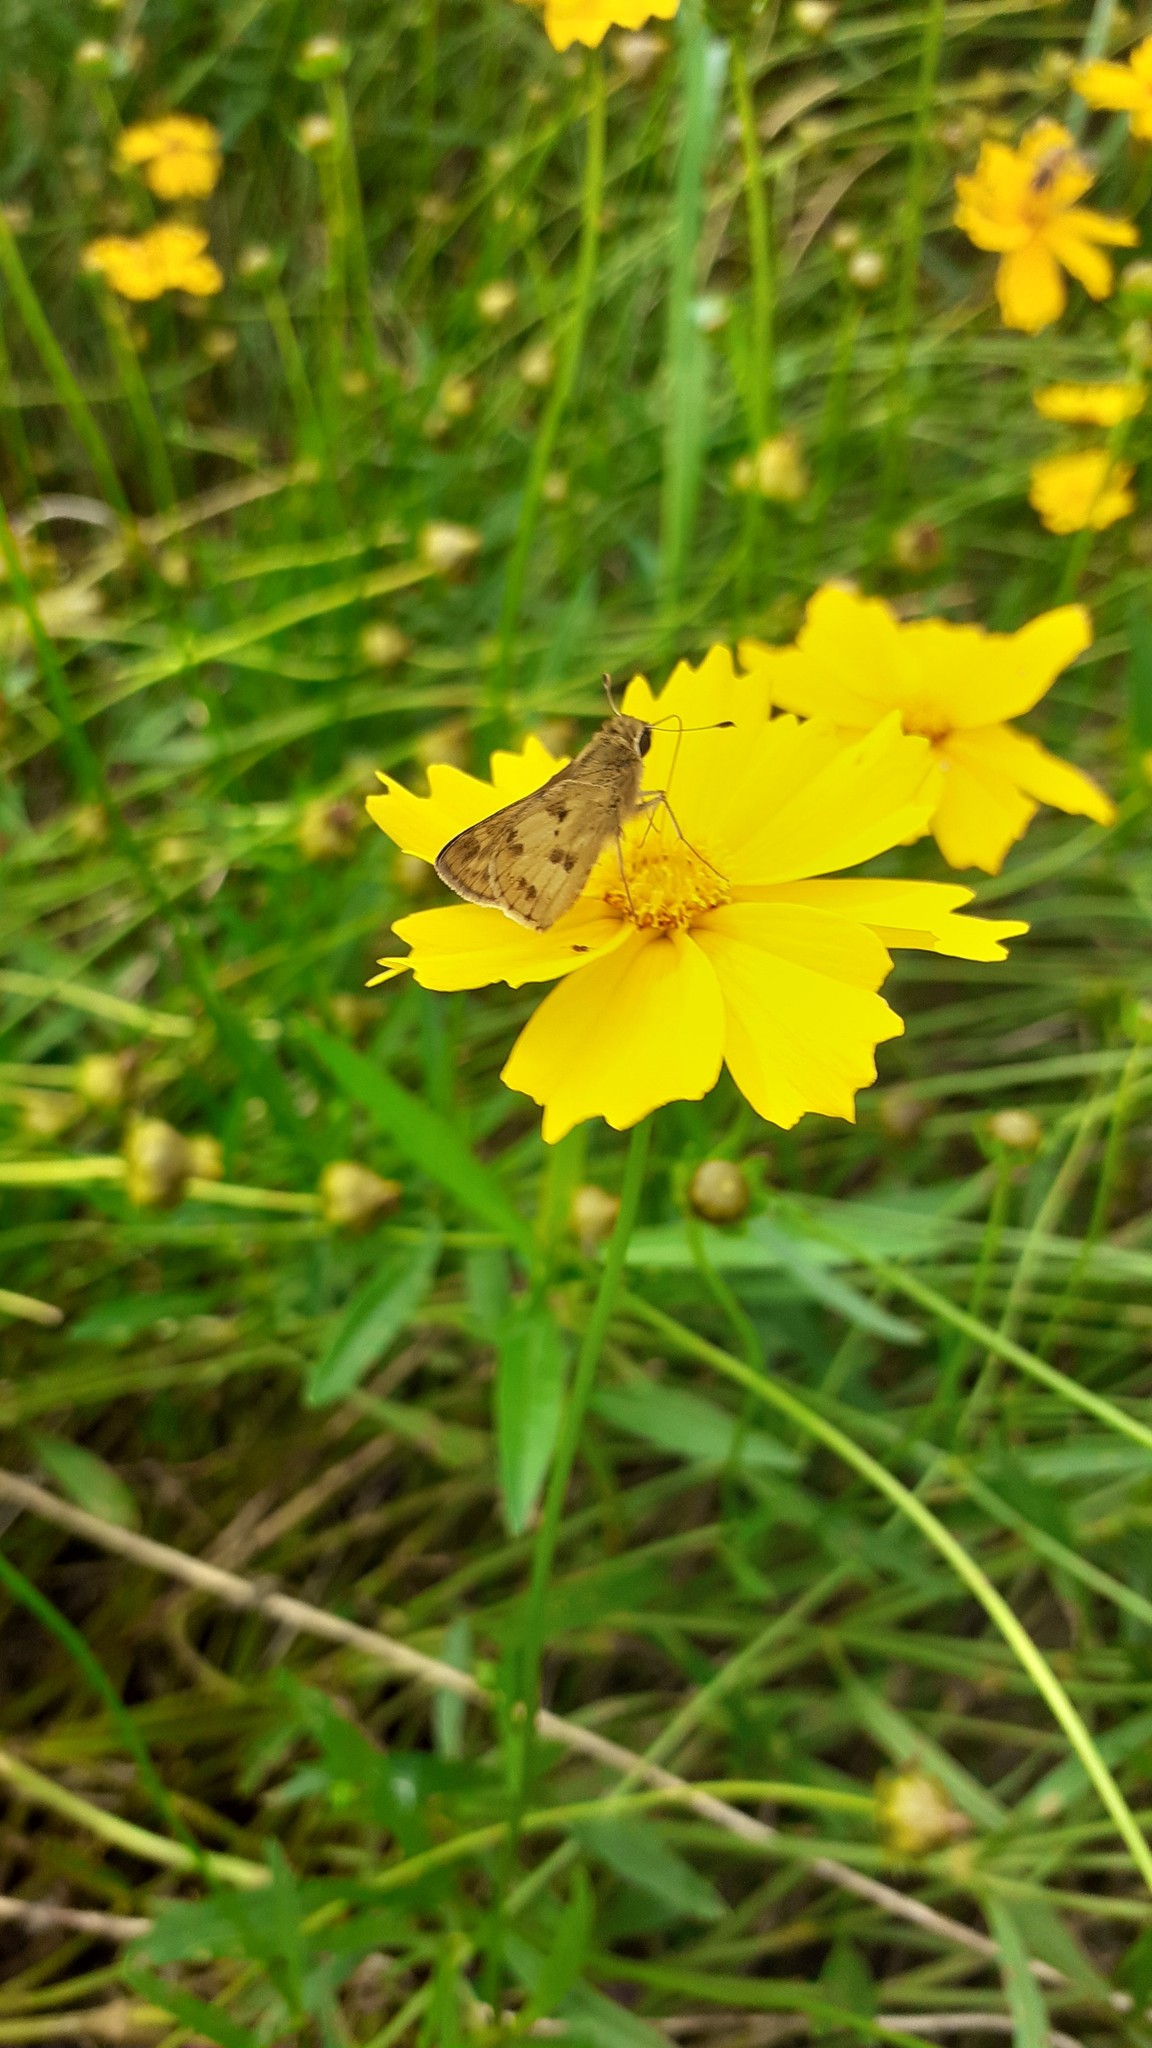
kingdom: Animalia
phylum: Arthropoda
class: Insecta
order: Lepidoptera
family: Hesperiidae
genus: Hylephila
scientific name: Hylephila phyleus
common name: Fiery skipper
